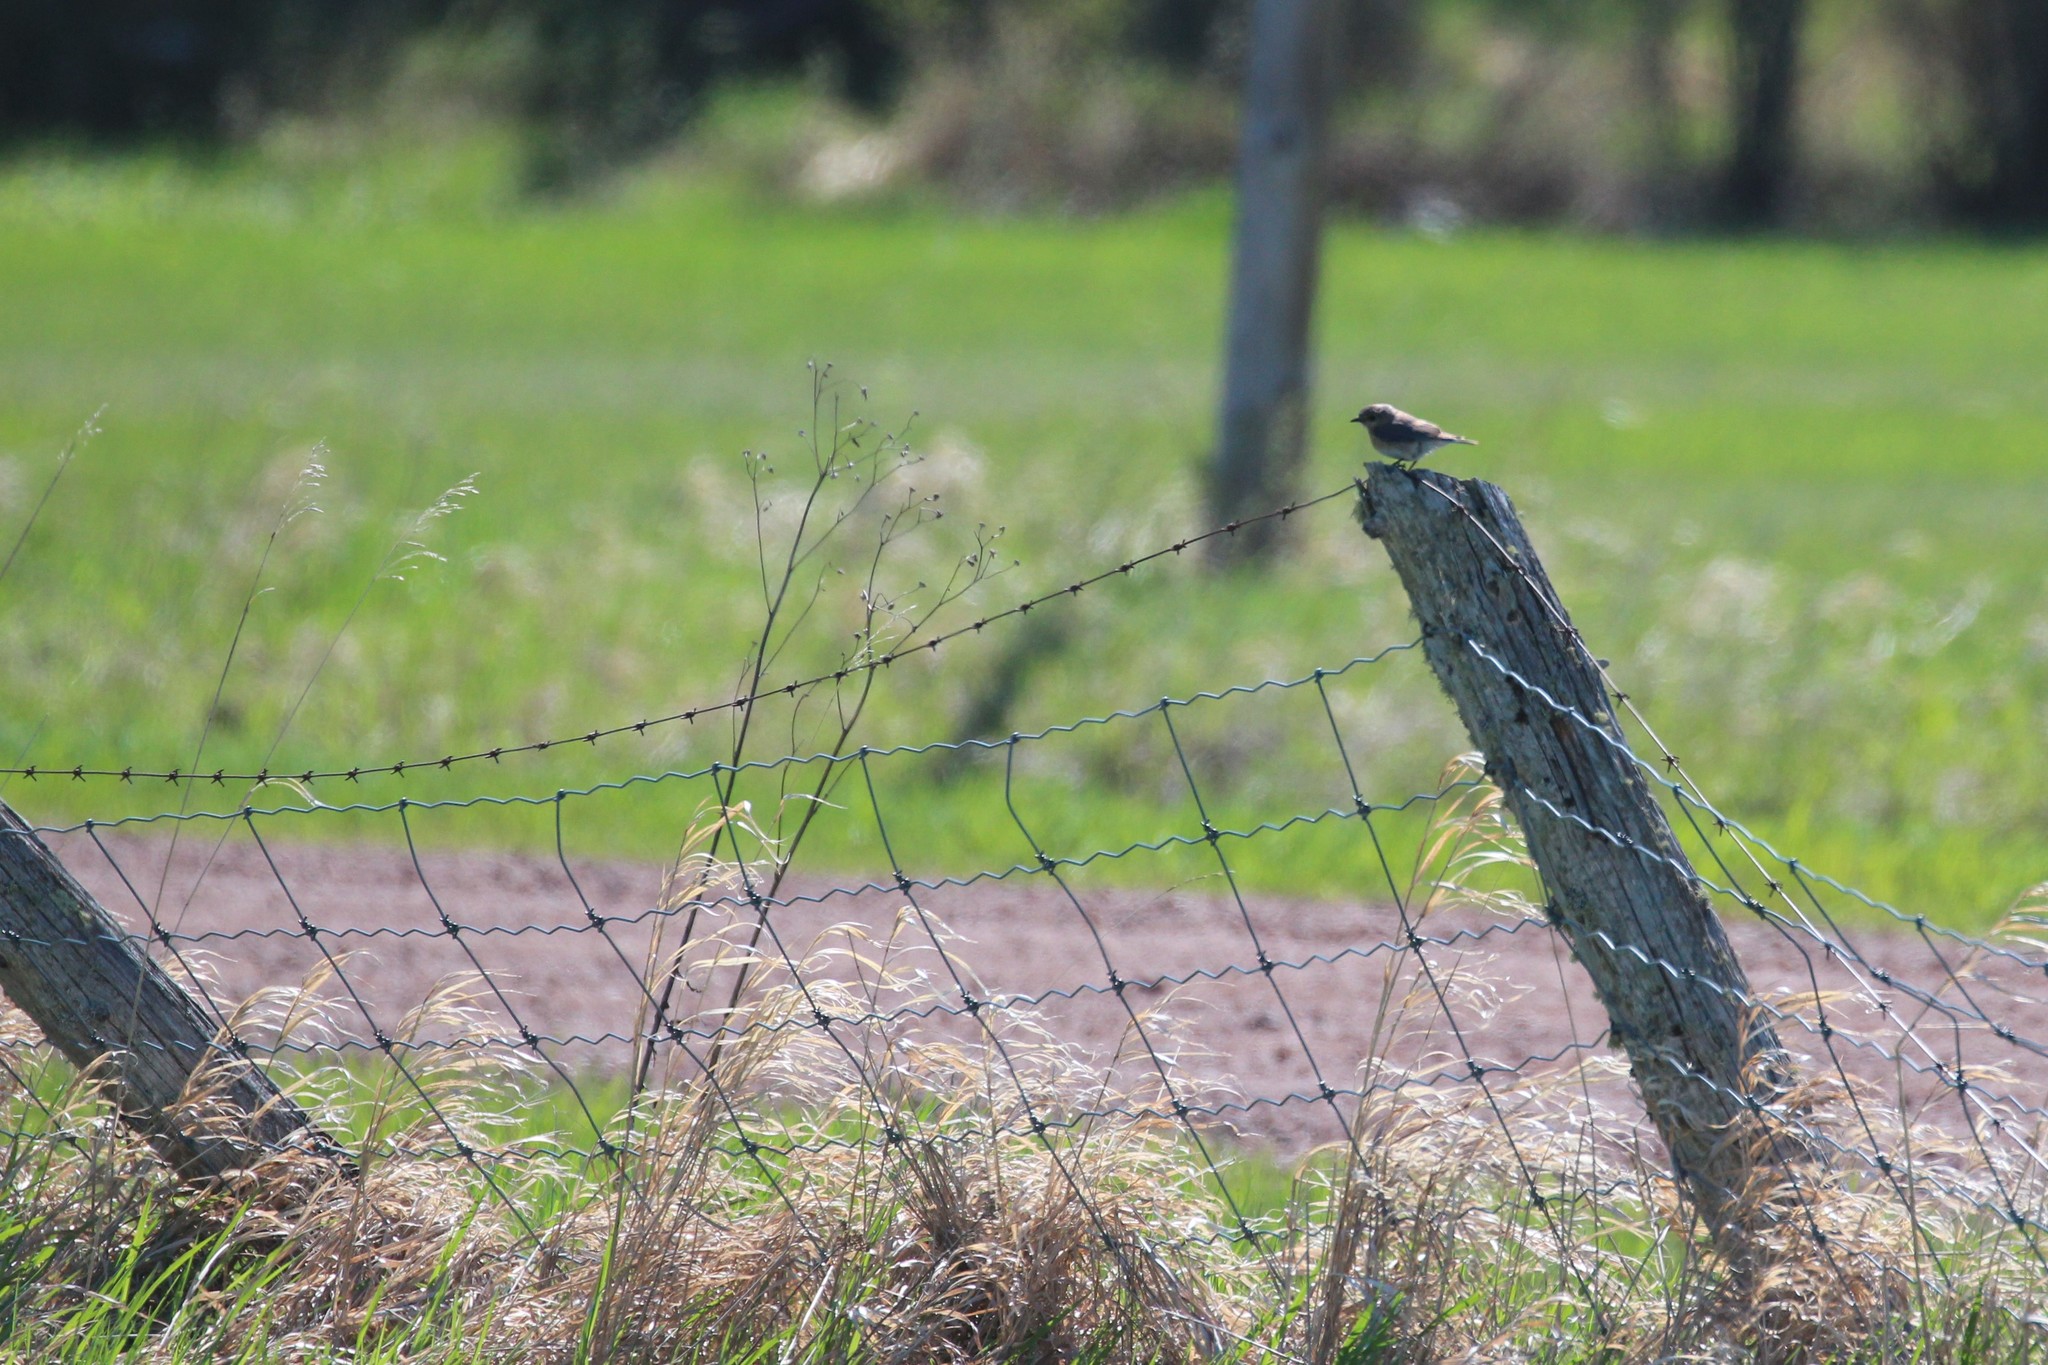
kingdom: Animalia
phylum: Chordata
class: Aves
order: Passeriformes
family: Turdidae
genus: Sialia
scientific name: Sialia sialis
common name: Eastern bluebird
